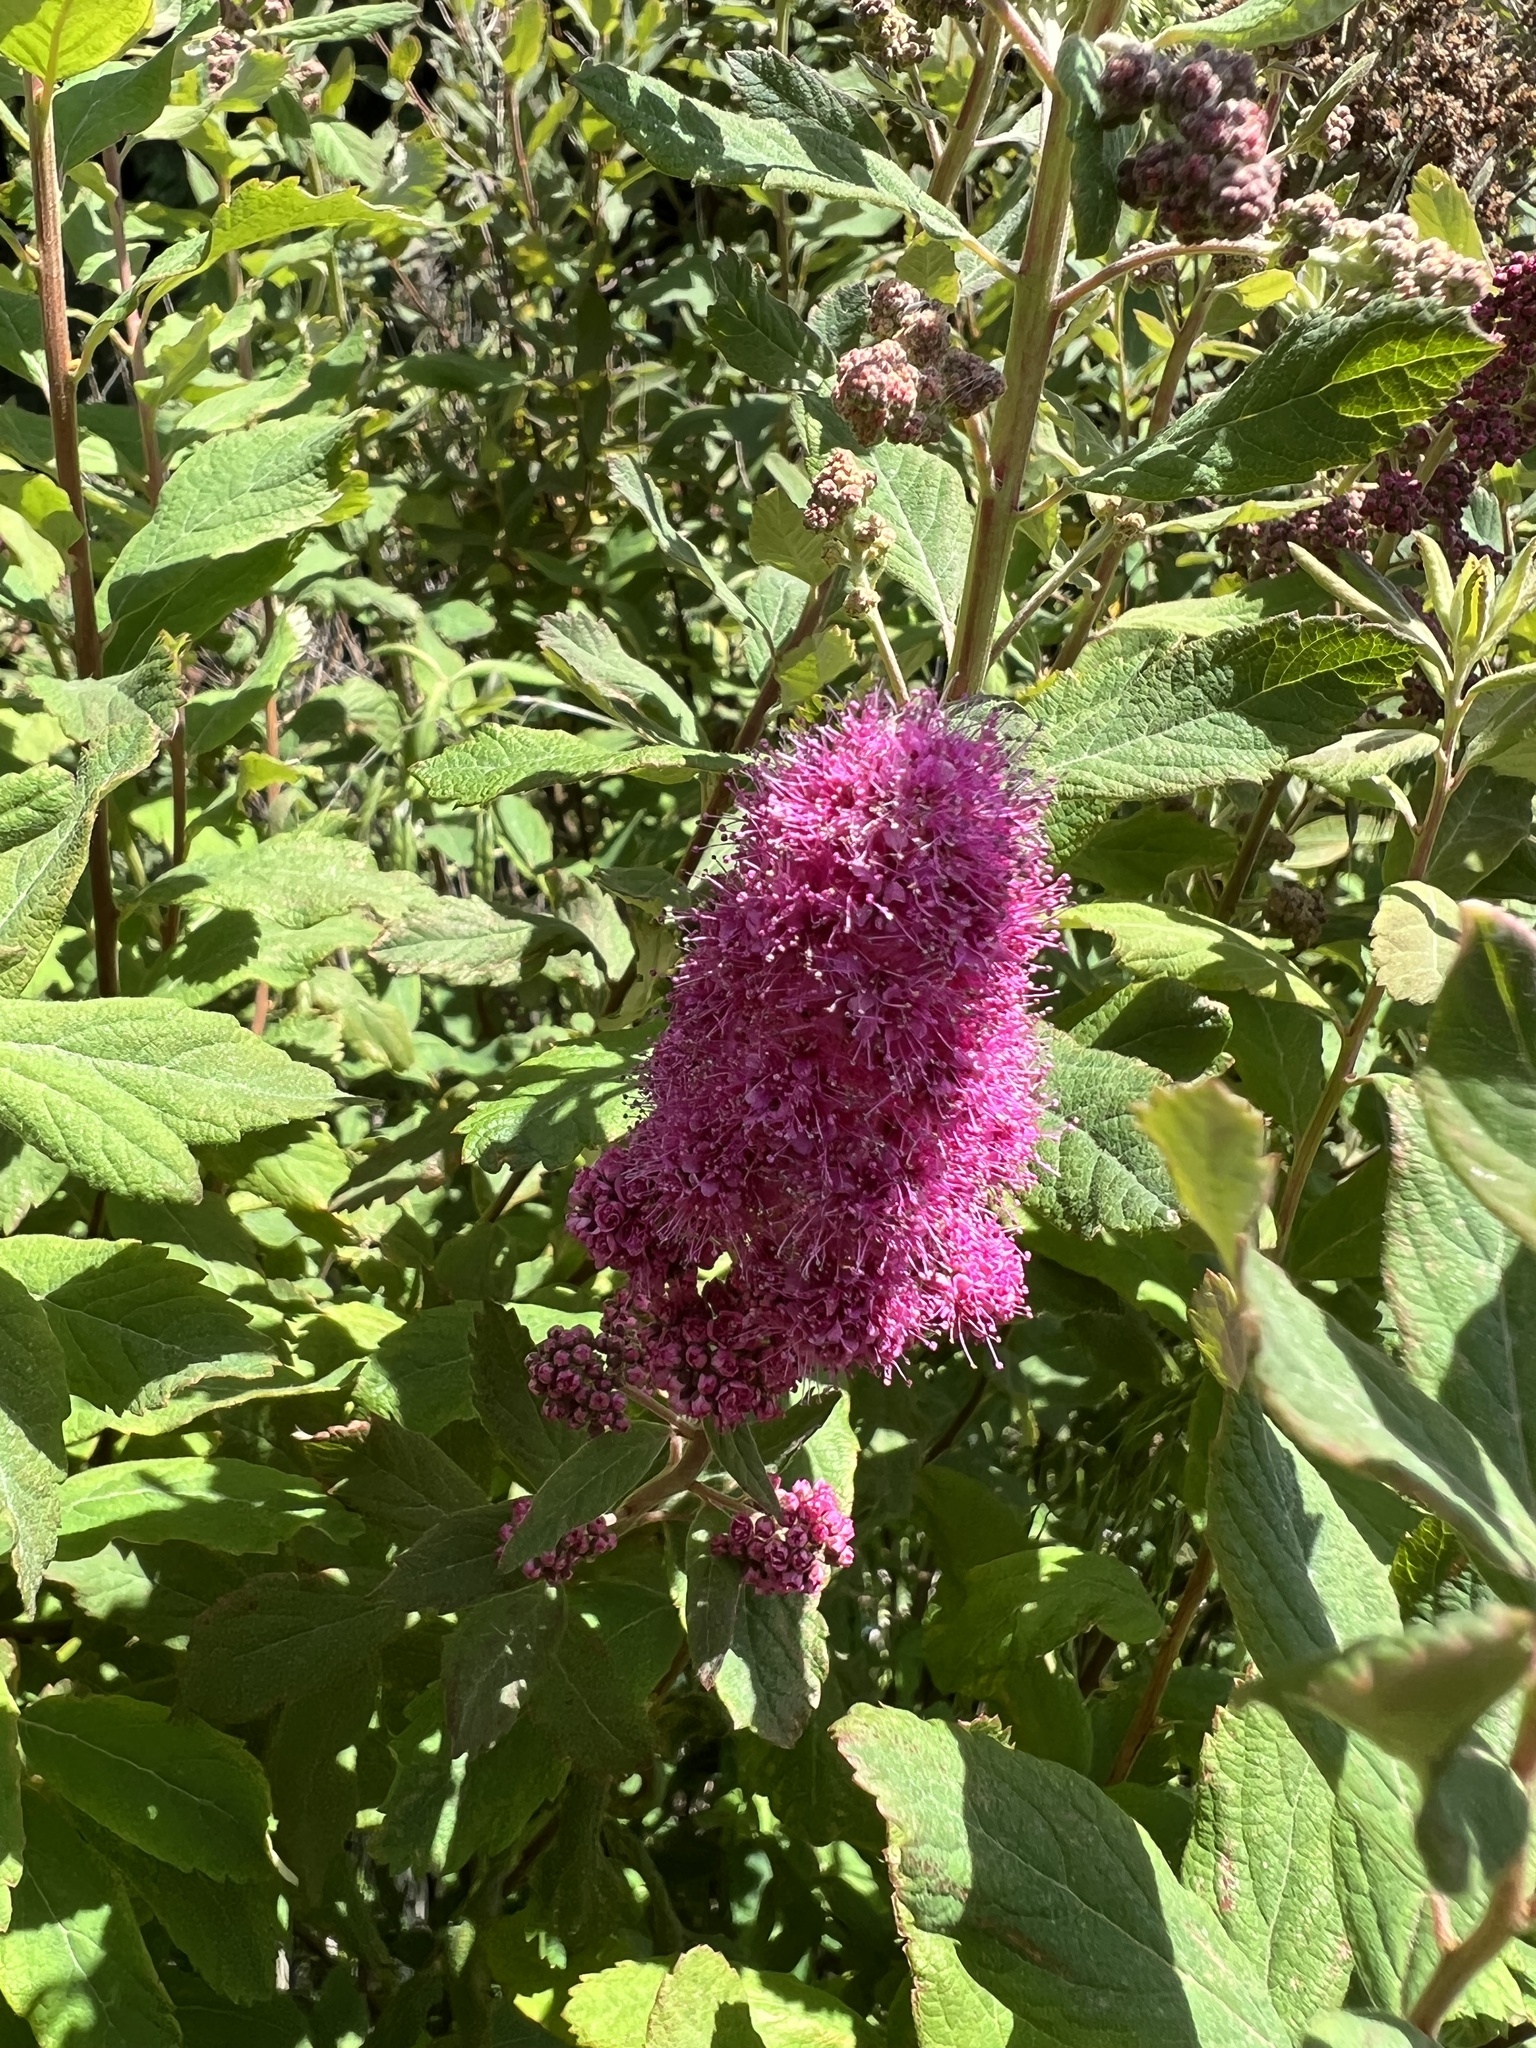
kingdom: Plantae
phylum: Tracheophyta
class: Magnoliopsida
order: Rosales
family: Rosaceae
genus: Spiraea
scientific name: Spiraea douglasii
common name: Steeplebush
